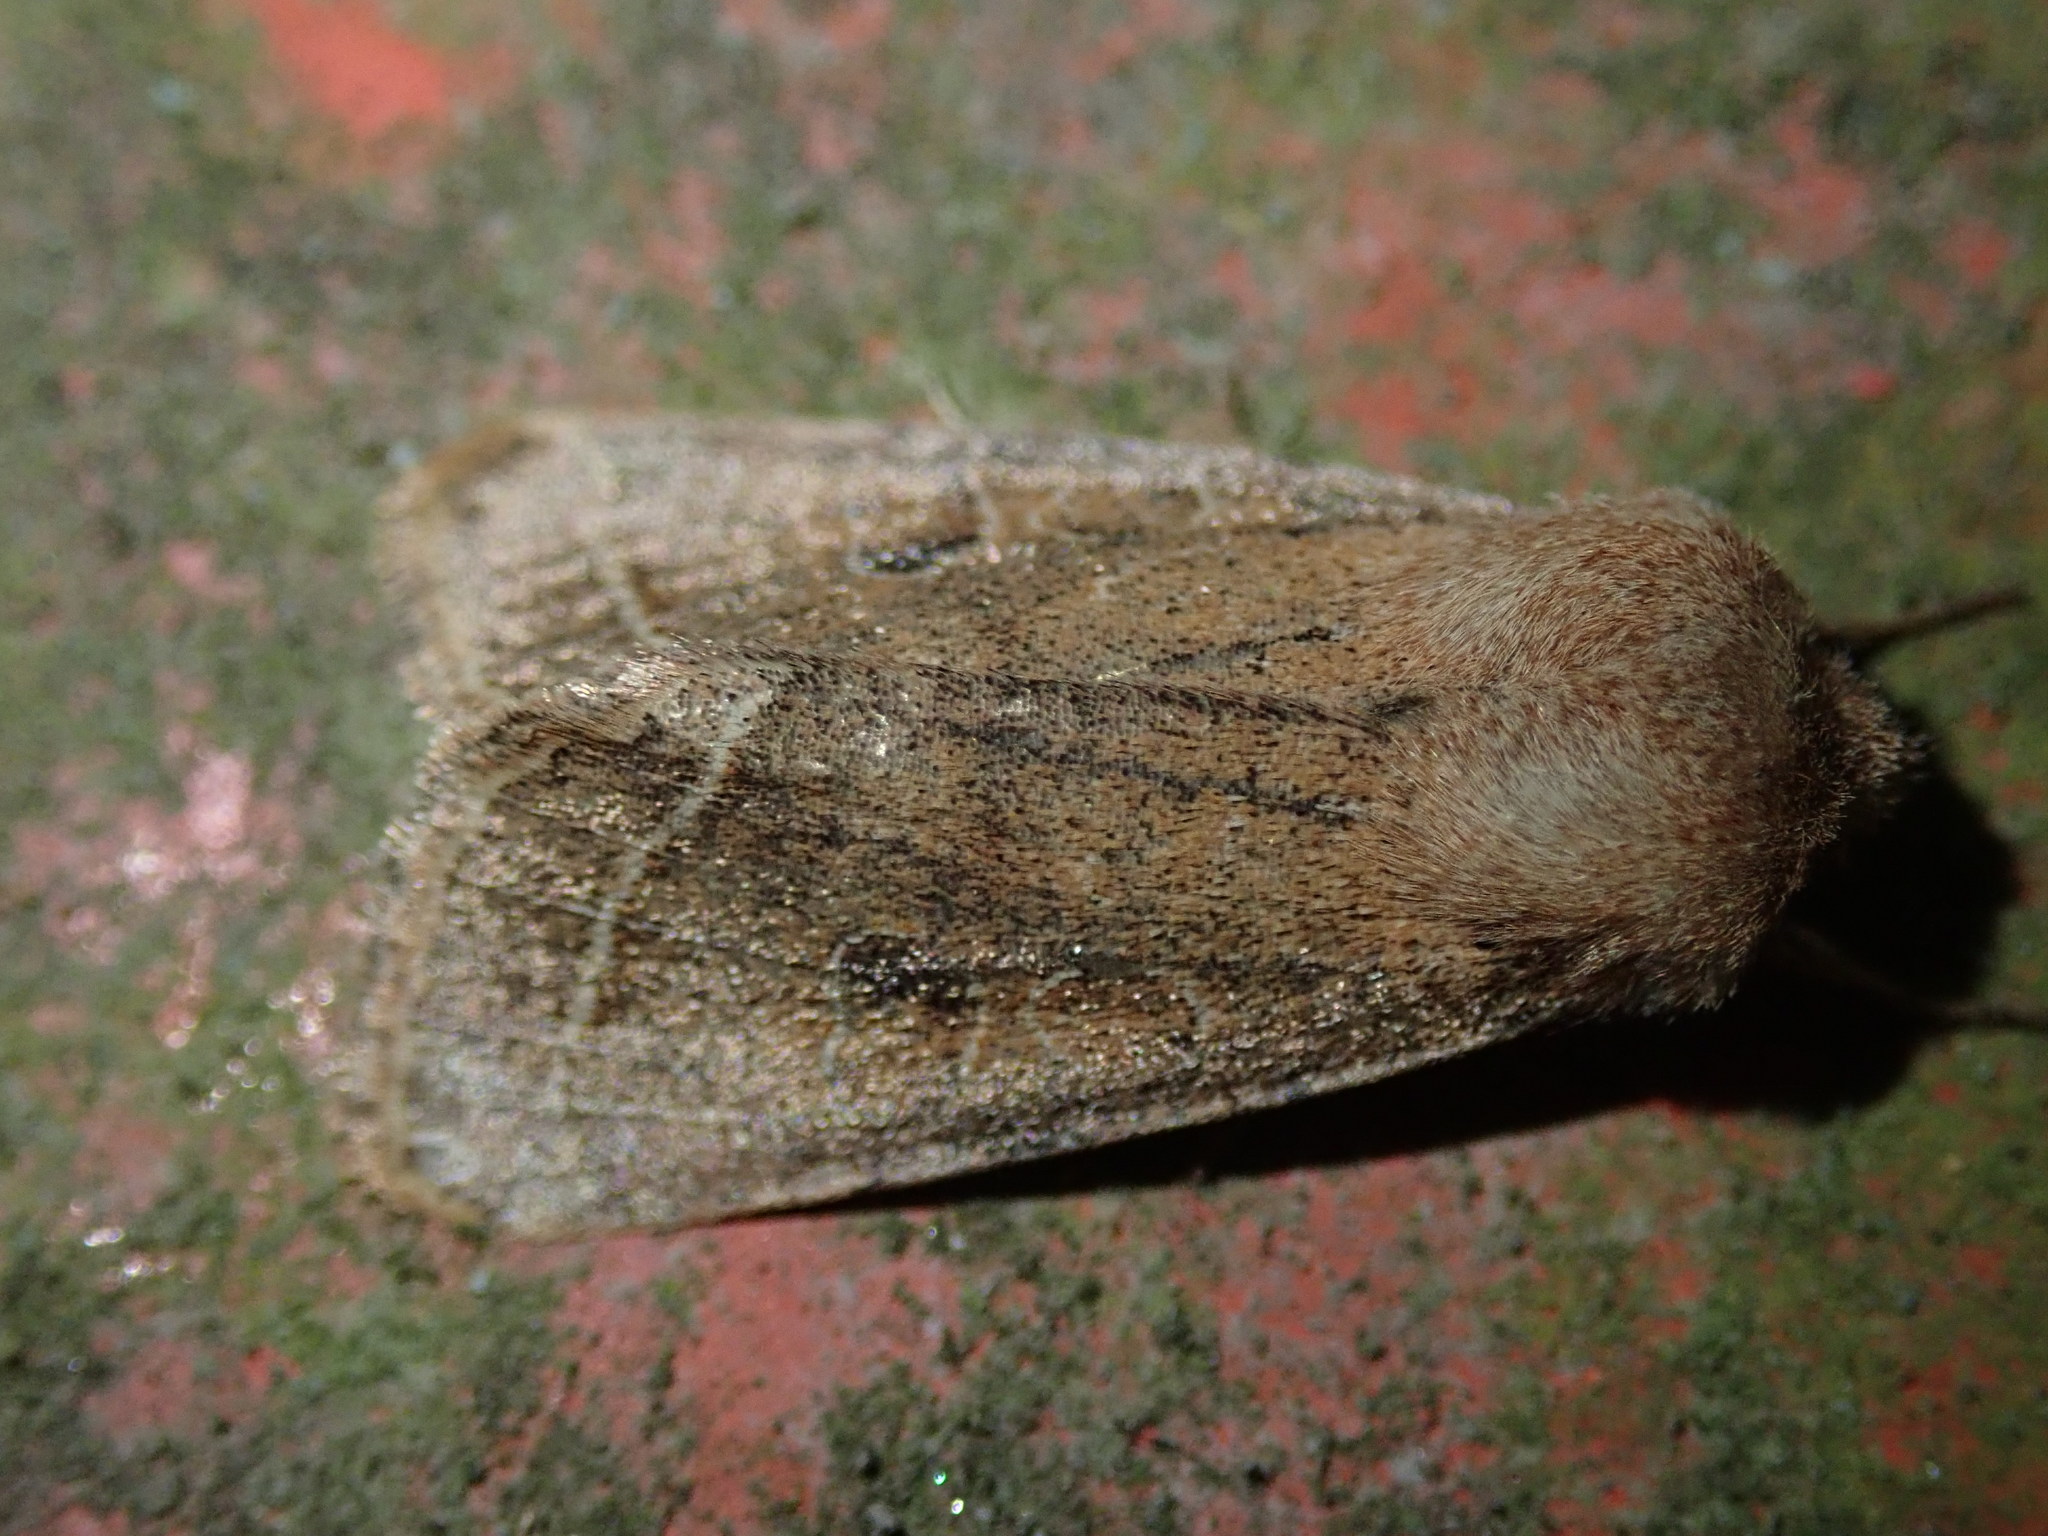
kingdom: Animalia
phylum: Arthropoda
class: Insecta
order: Lepidoptera
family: Noctuidae
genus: Orthosia
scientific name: Orthosia cerasi
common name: Common quaker
